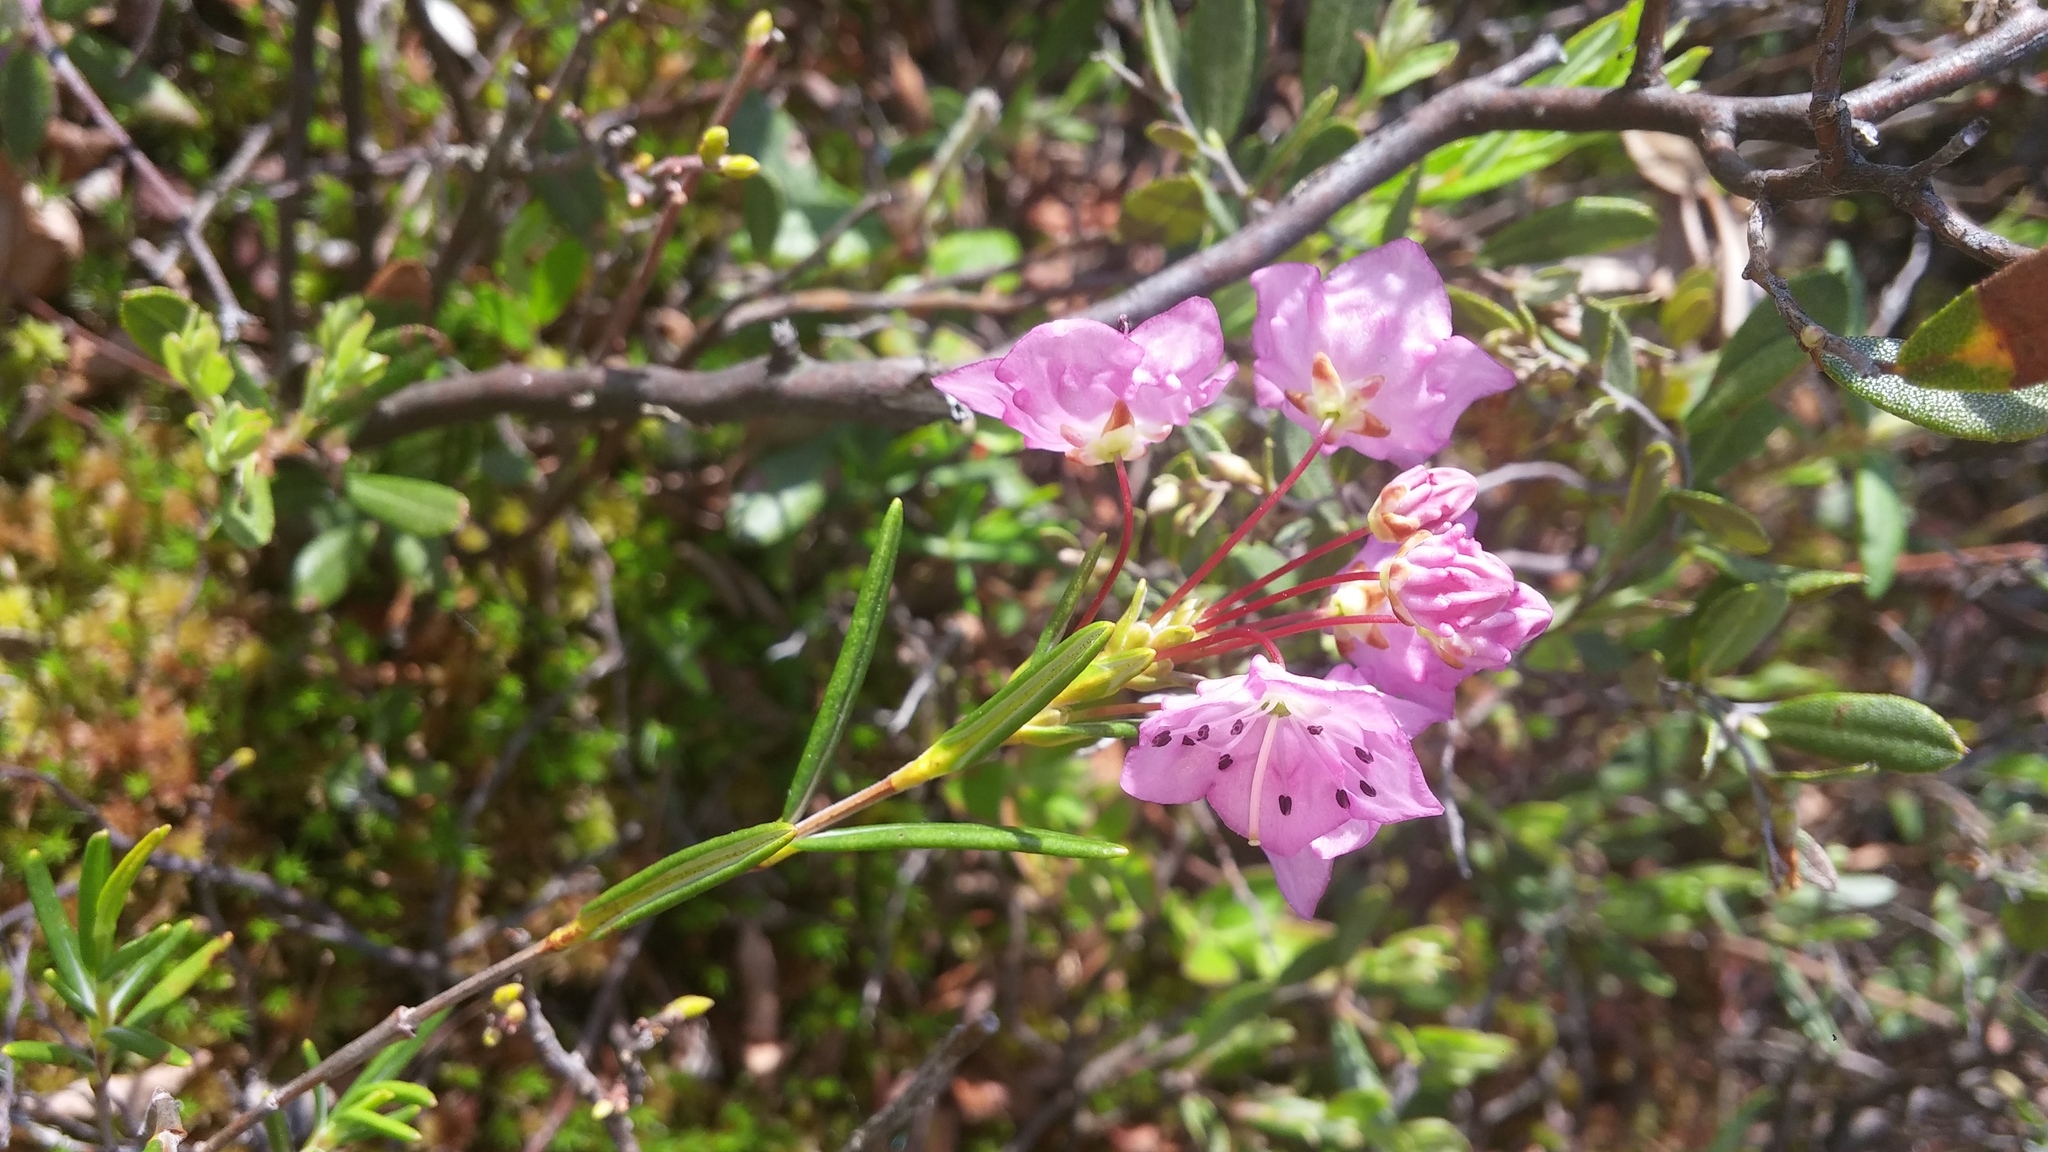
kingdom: Plantae
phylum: Tracheophyta
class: Magnoliopsida
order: Ericales
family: Ericaceae
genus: Kalmia
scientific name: Kalmia polifolia
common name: Bog-laurel
